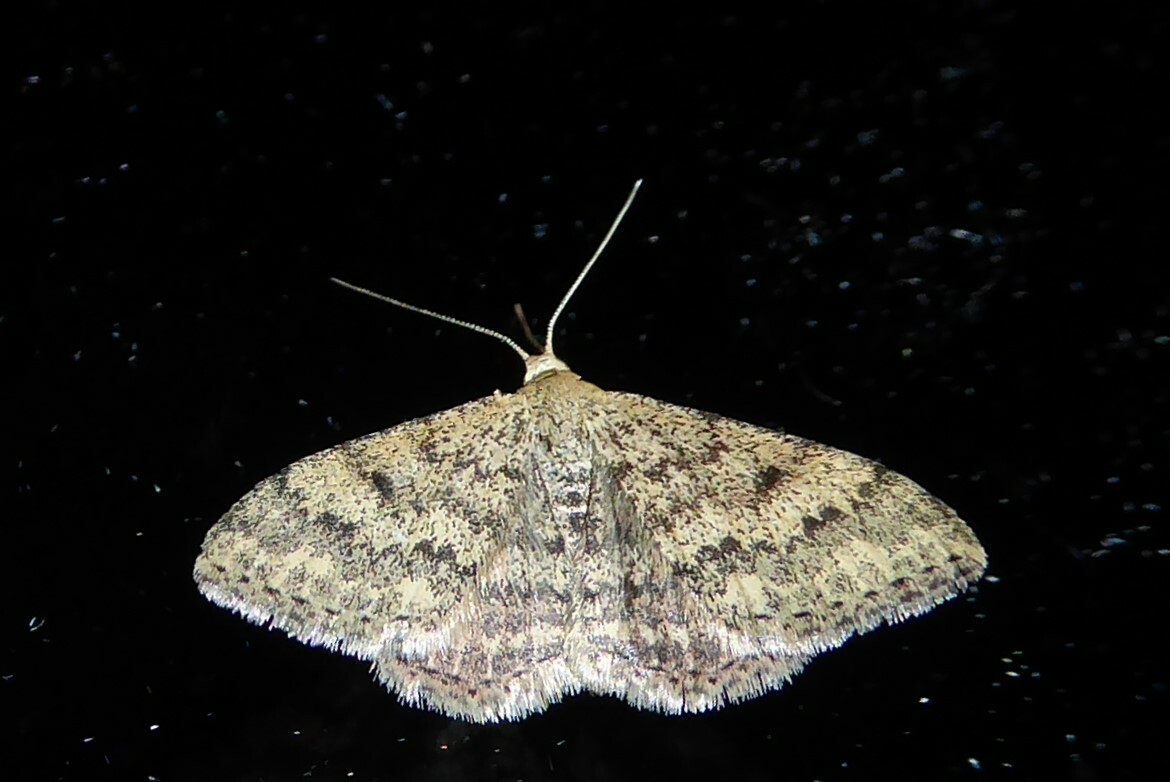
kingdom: Animalia
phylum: Arthropoda
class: Insecta
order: Lepidoptera
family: Geometridae
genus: Scopula
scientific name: Scopula rubraria
